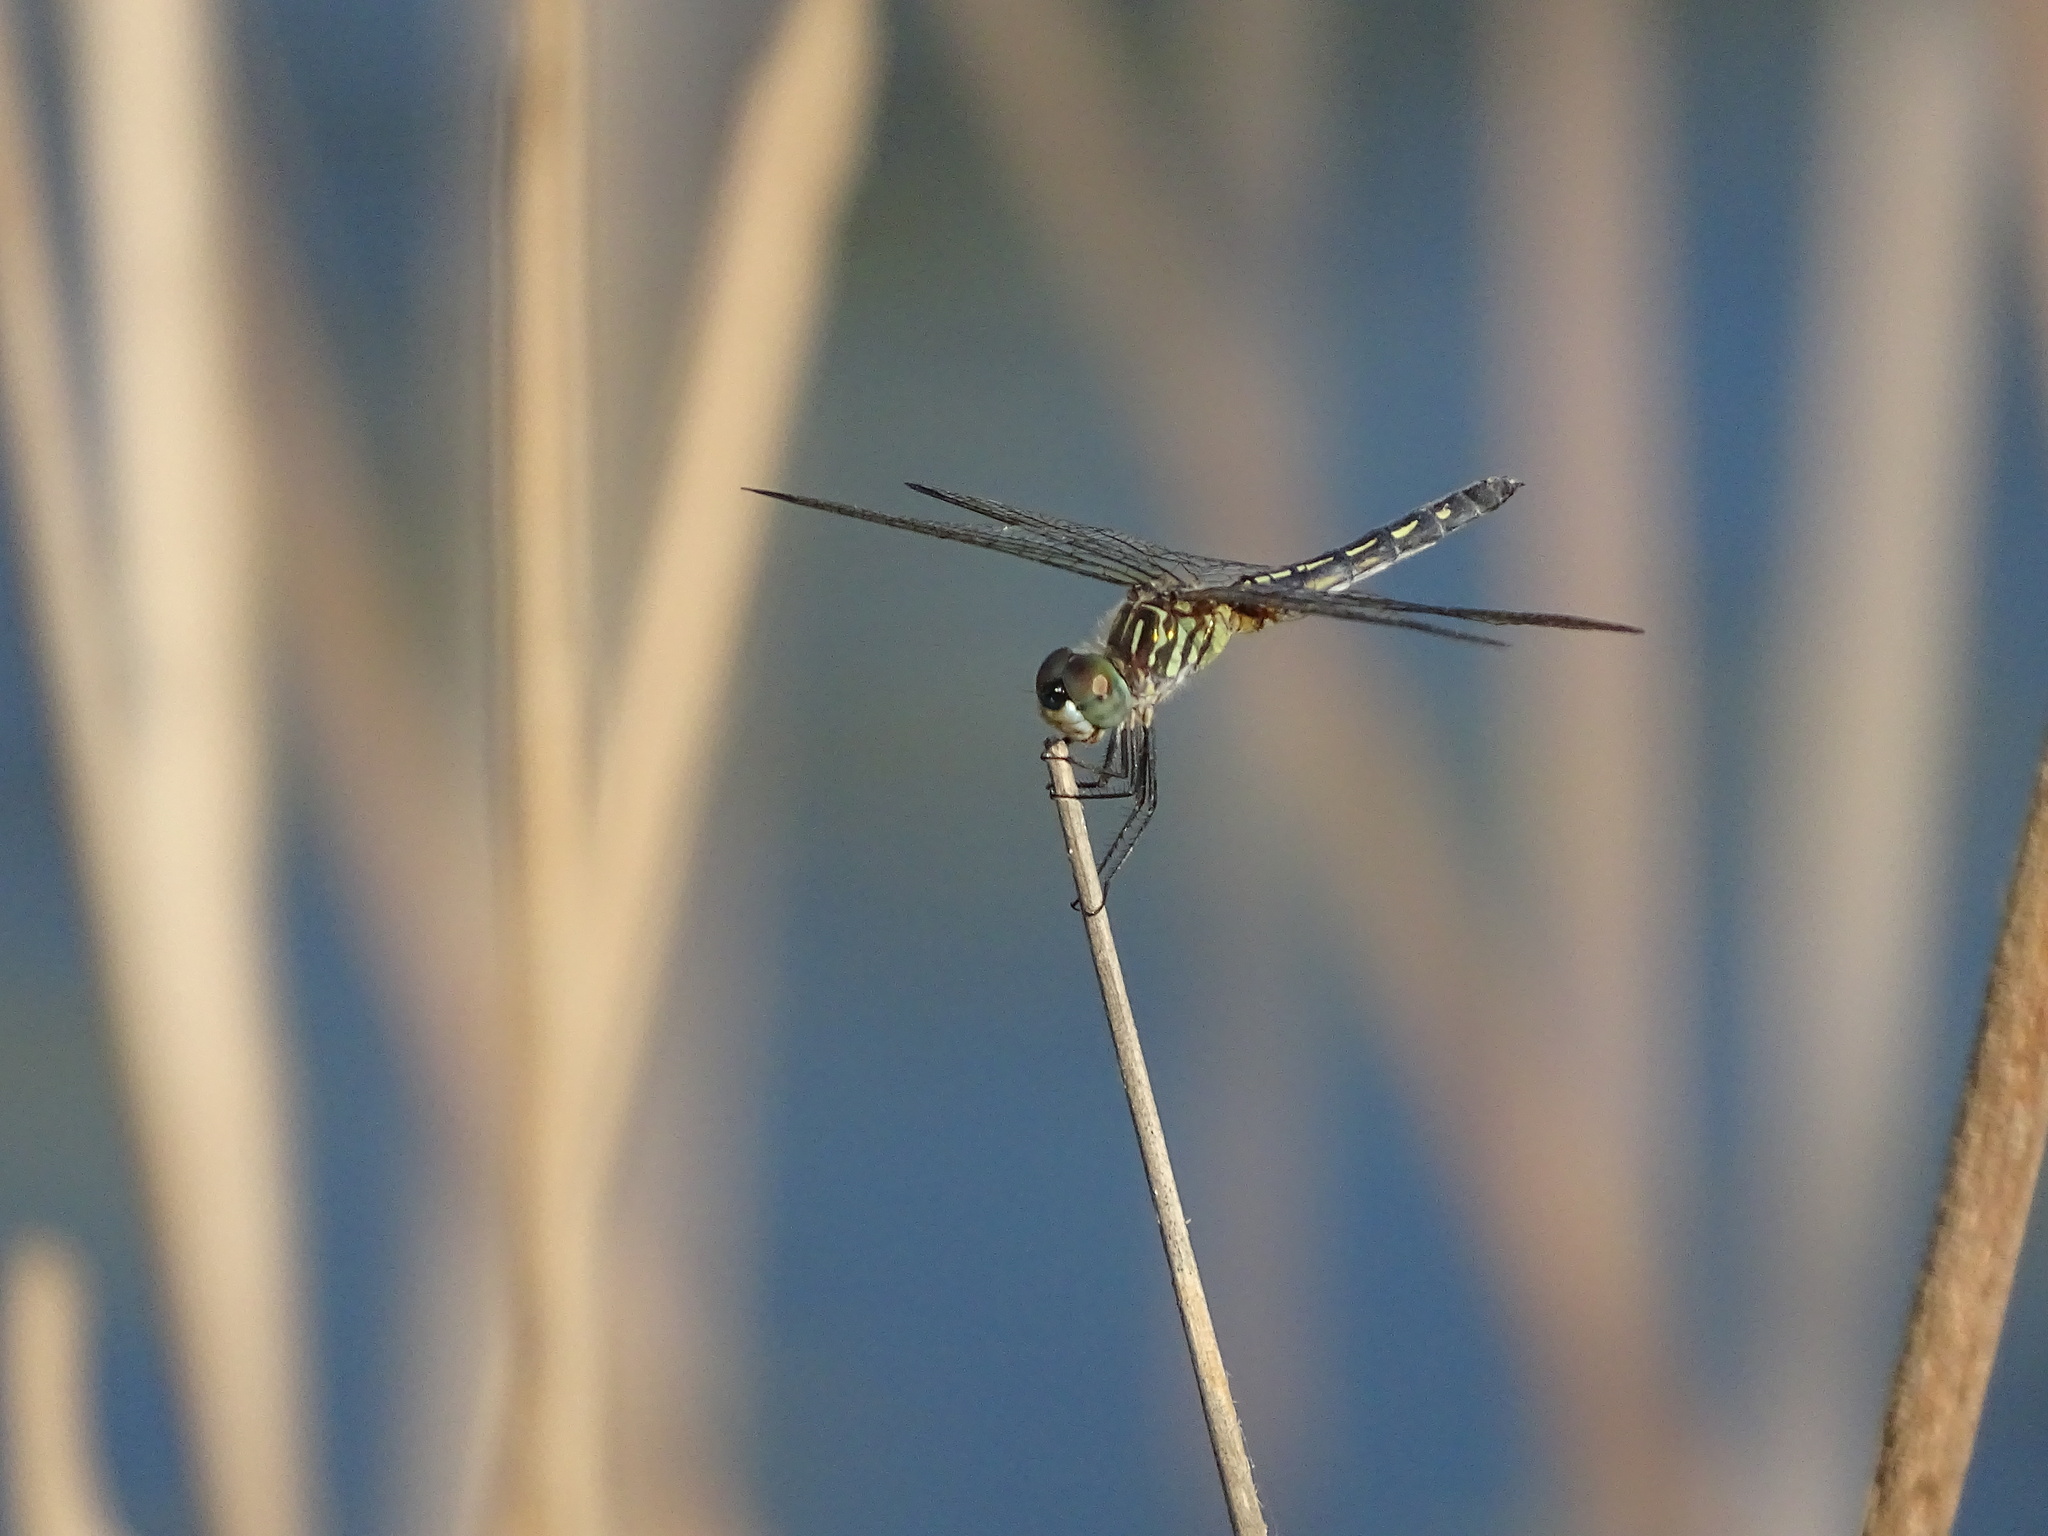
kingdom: Animalia
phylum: Arthropoda
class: Insecta
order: Odonata
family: Libellulidae
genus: Pachydiplax
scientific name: Pachydiplax longipennis
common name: Blue dasher
